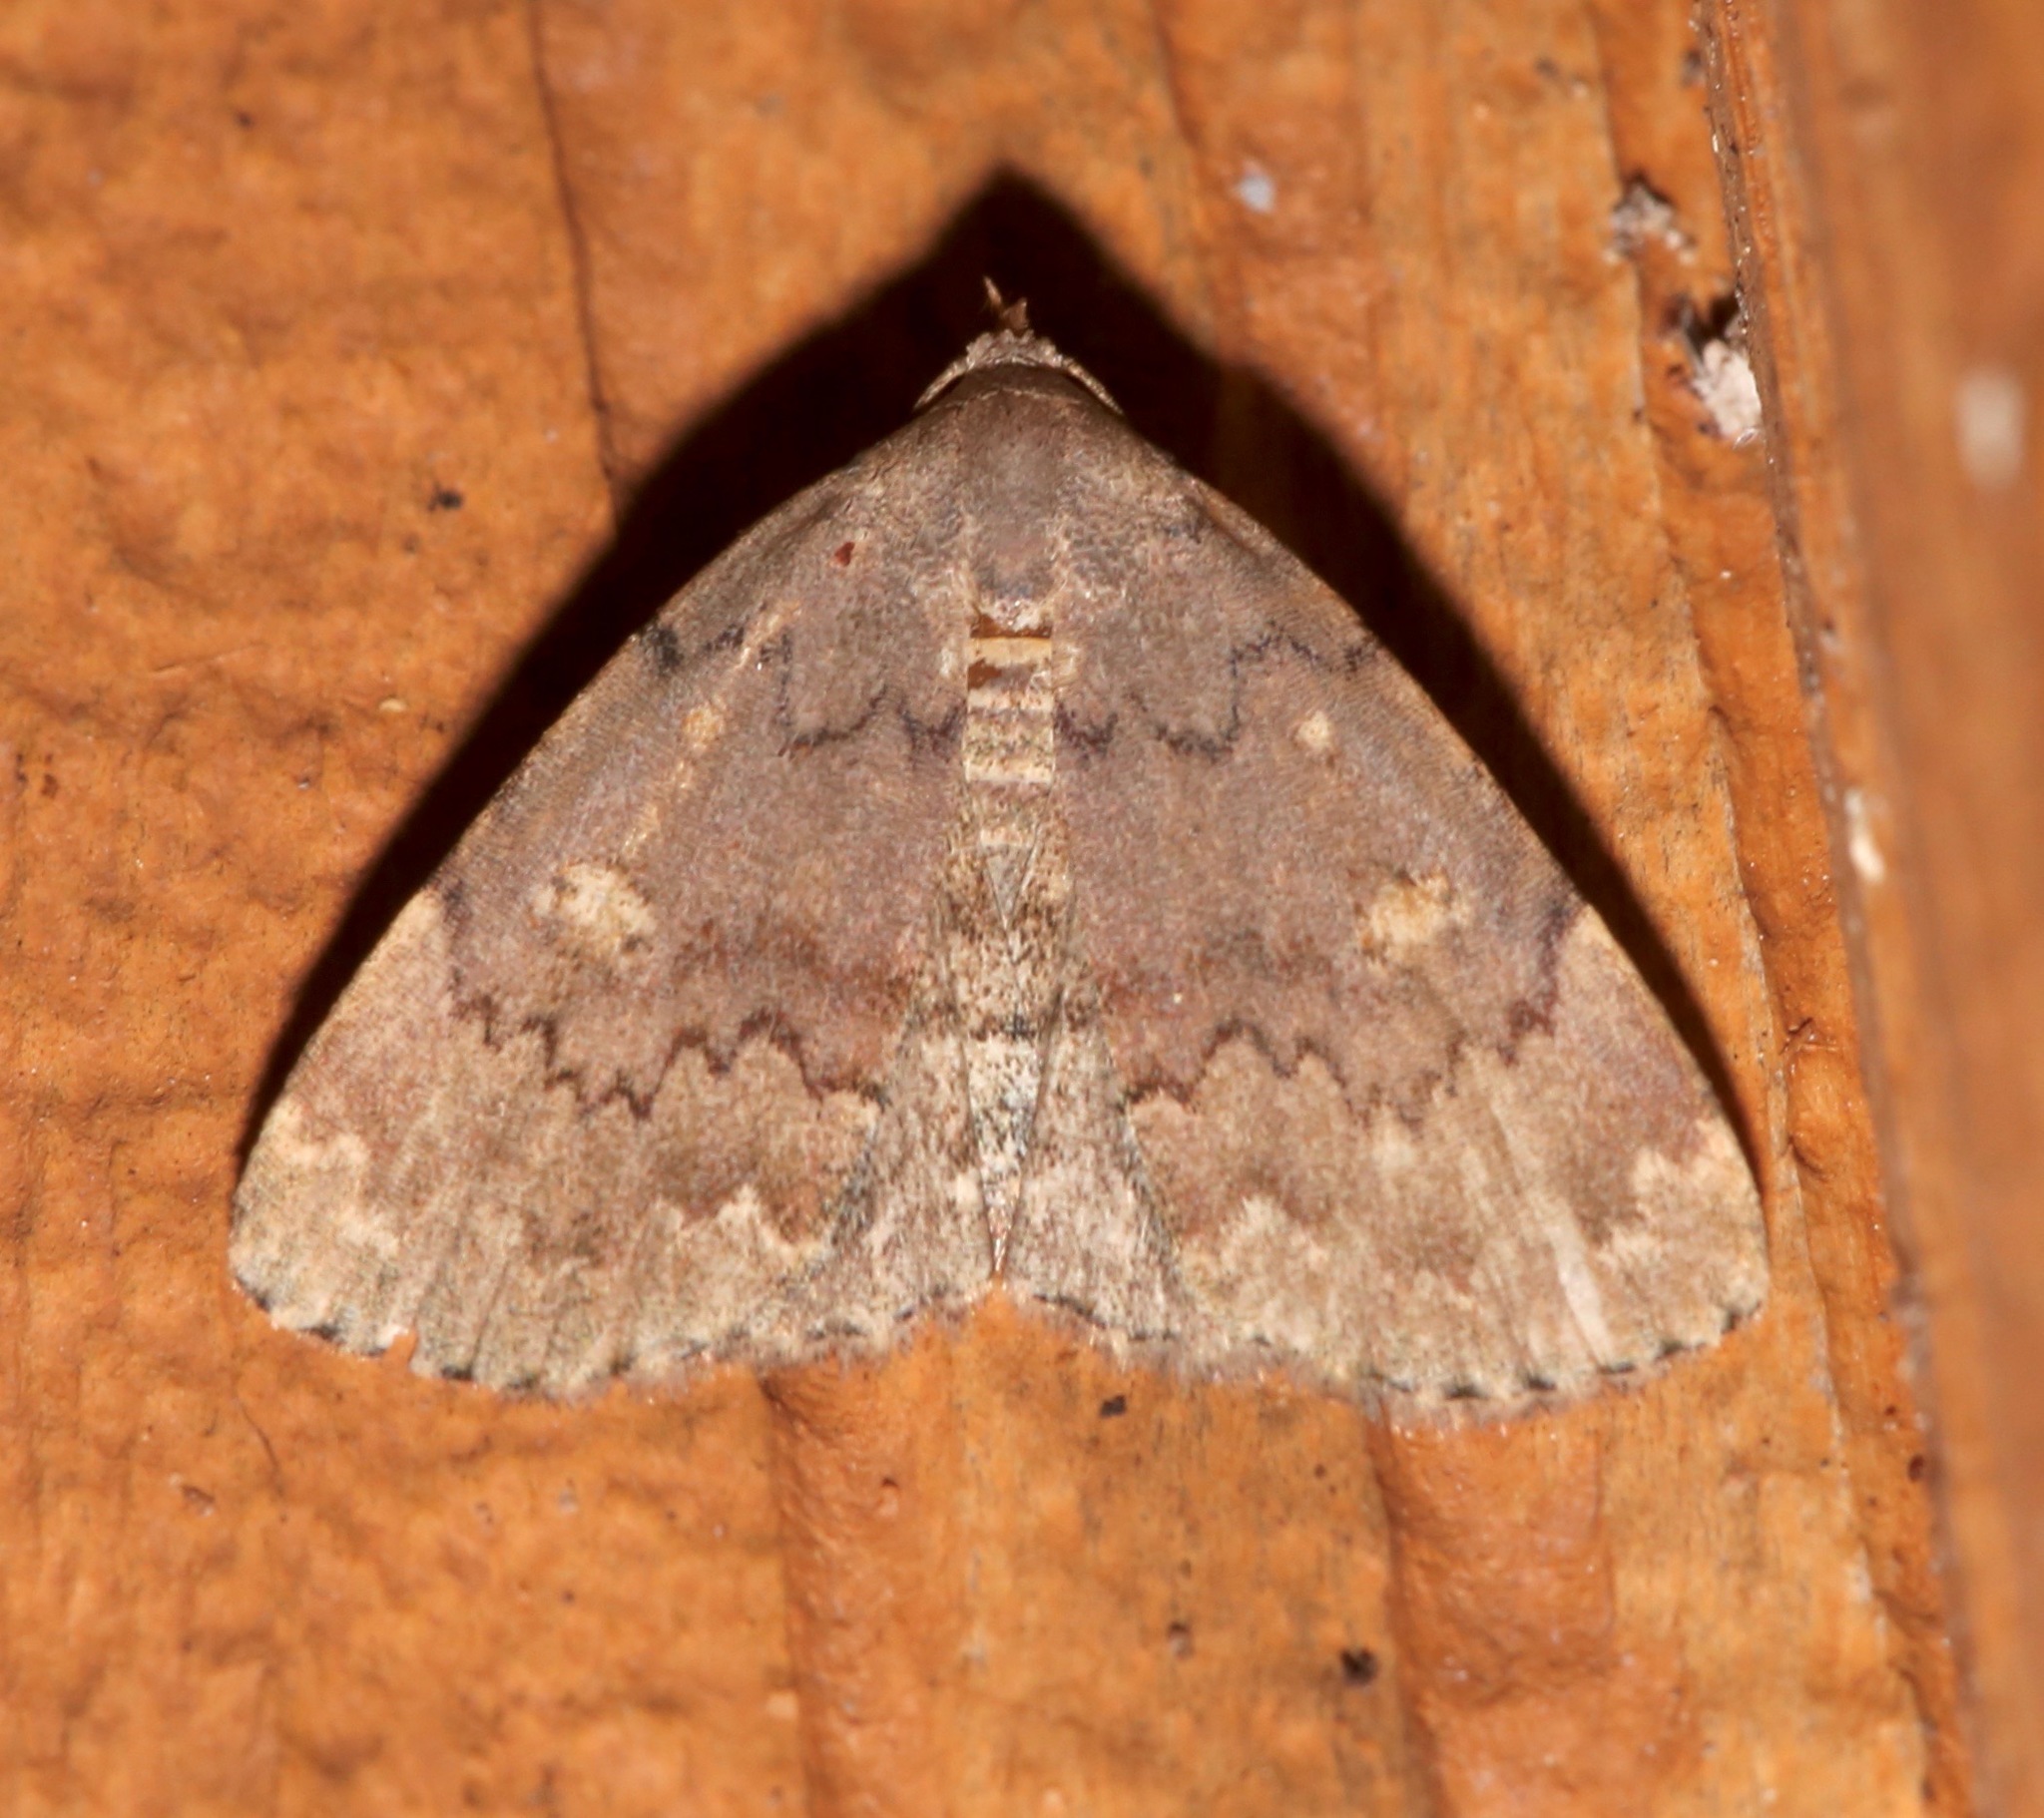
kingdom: Animalia
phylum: Arthropoda
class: Insecta
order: Lepidoptera
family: Erebidae
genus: Idia
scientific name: Idia aemula
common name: Common idia moth
